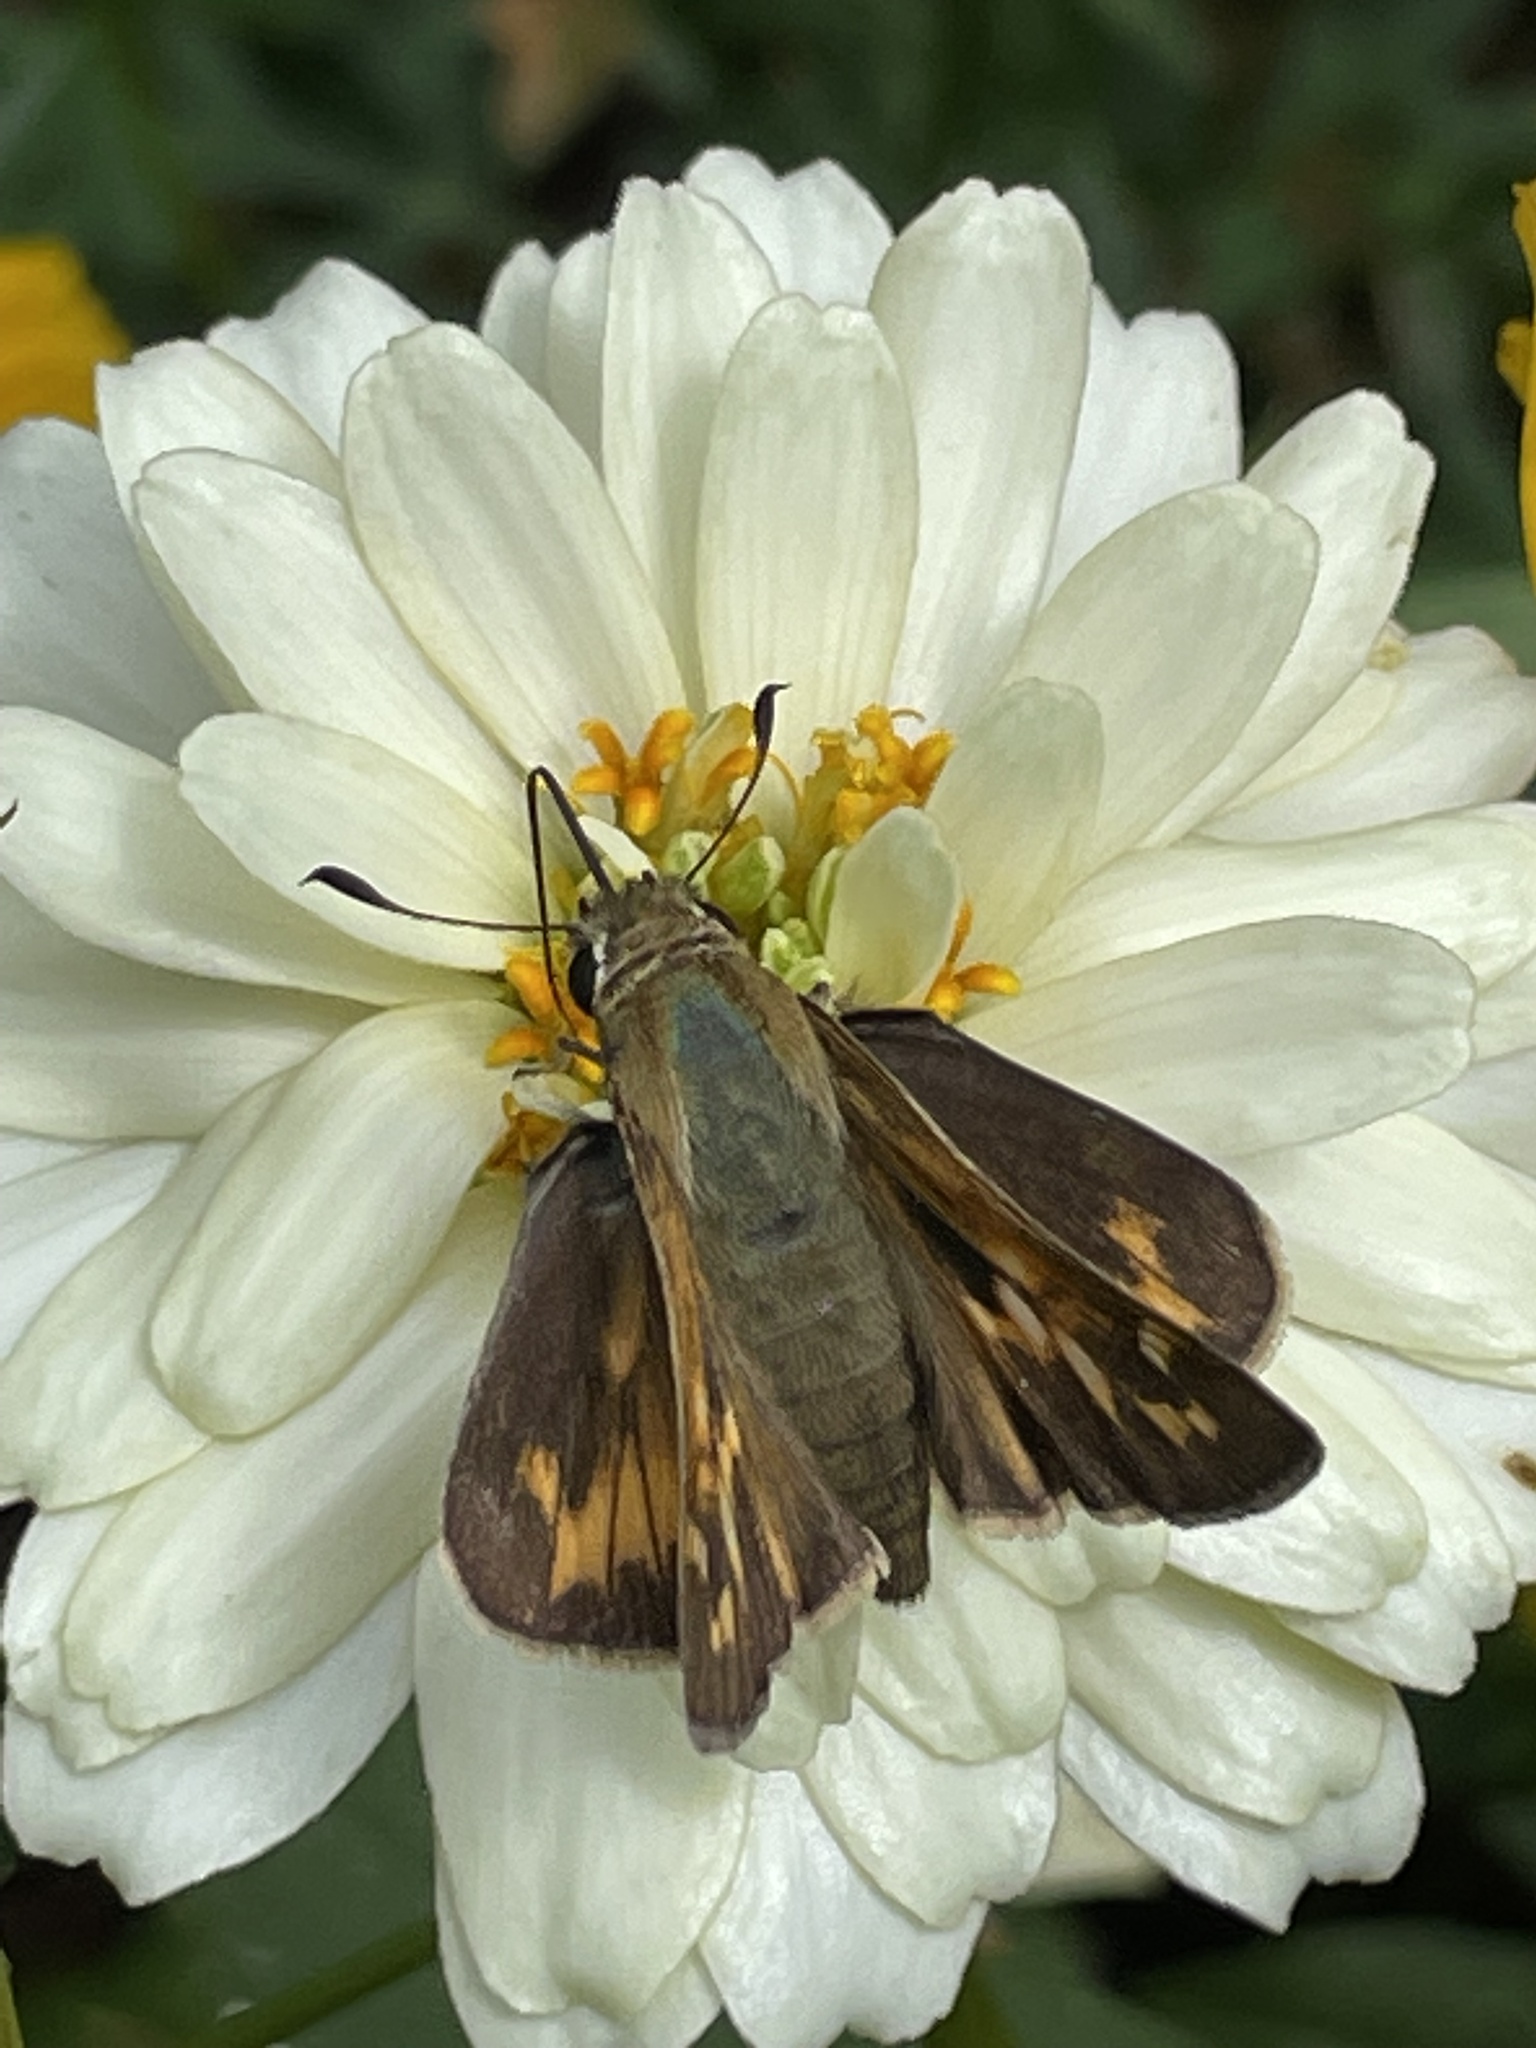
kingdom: Animalia
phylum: Arthropoda
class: Insecta
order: Lepidoptera
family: Hesperiidae
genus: Atalopedes
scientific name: Atalopedes
